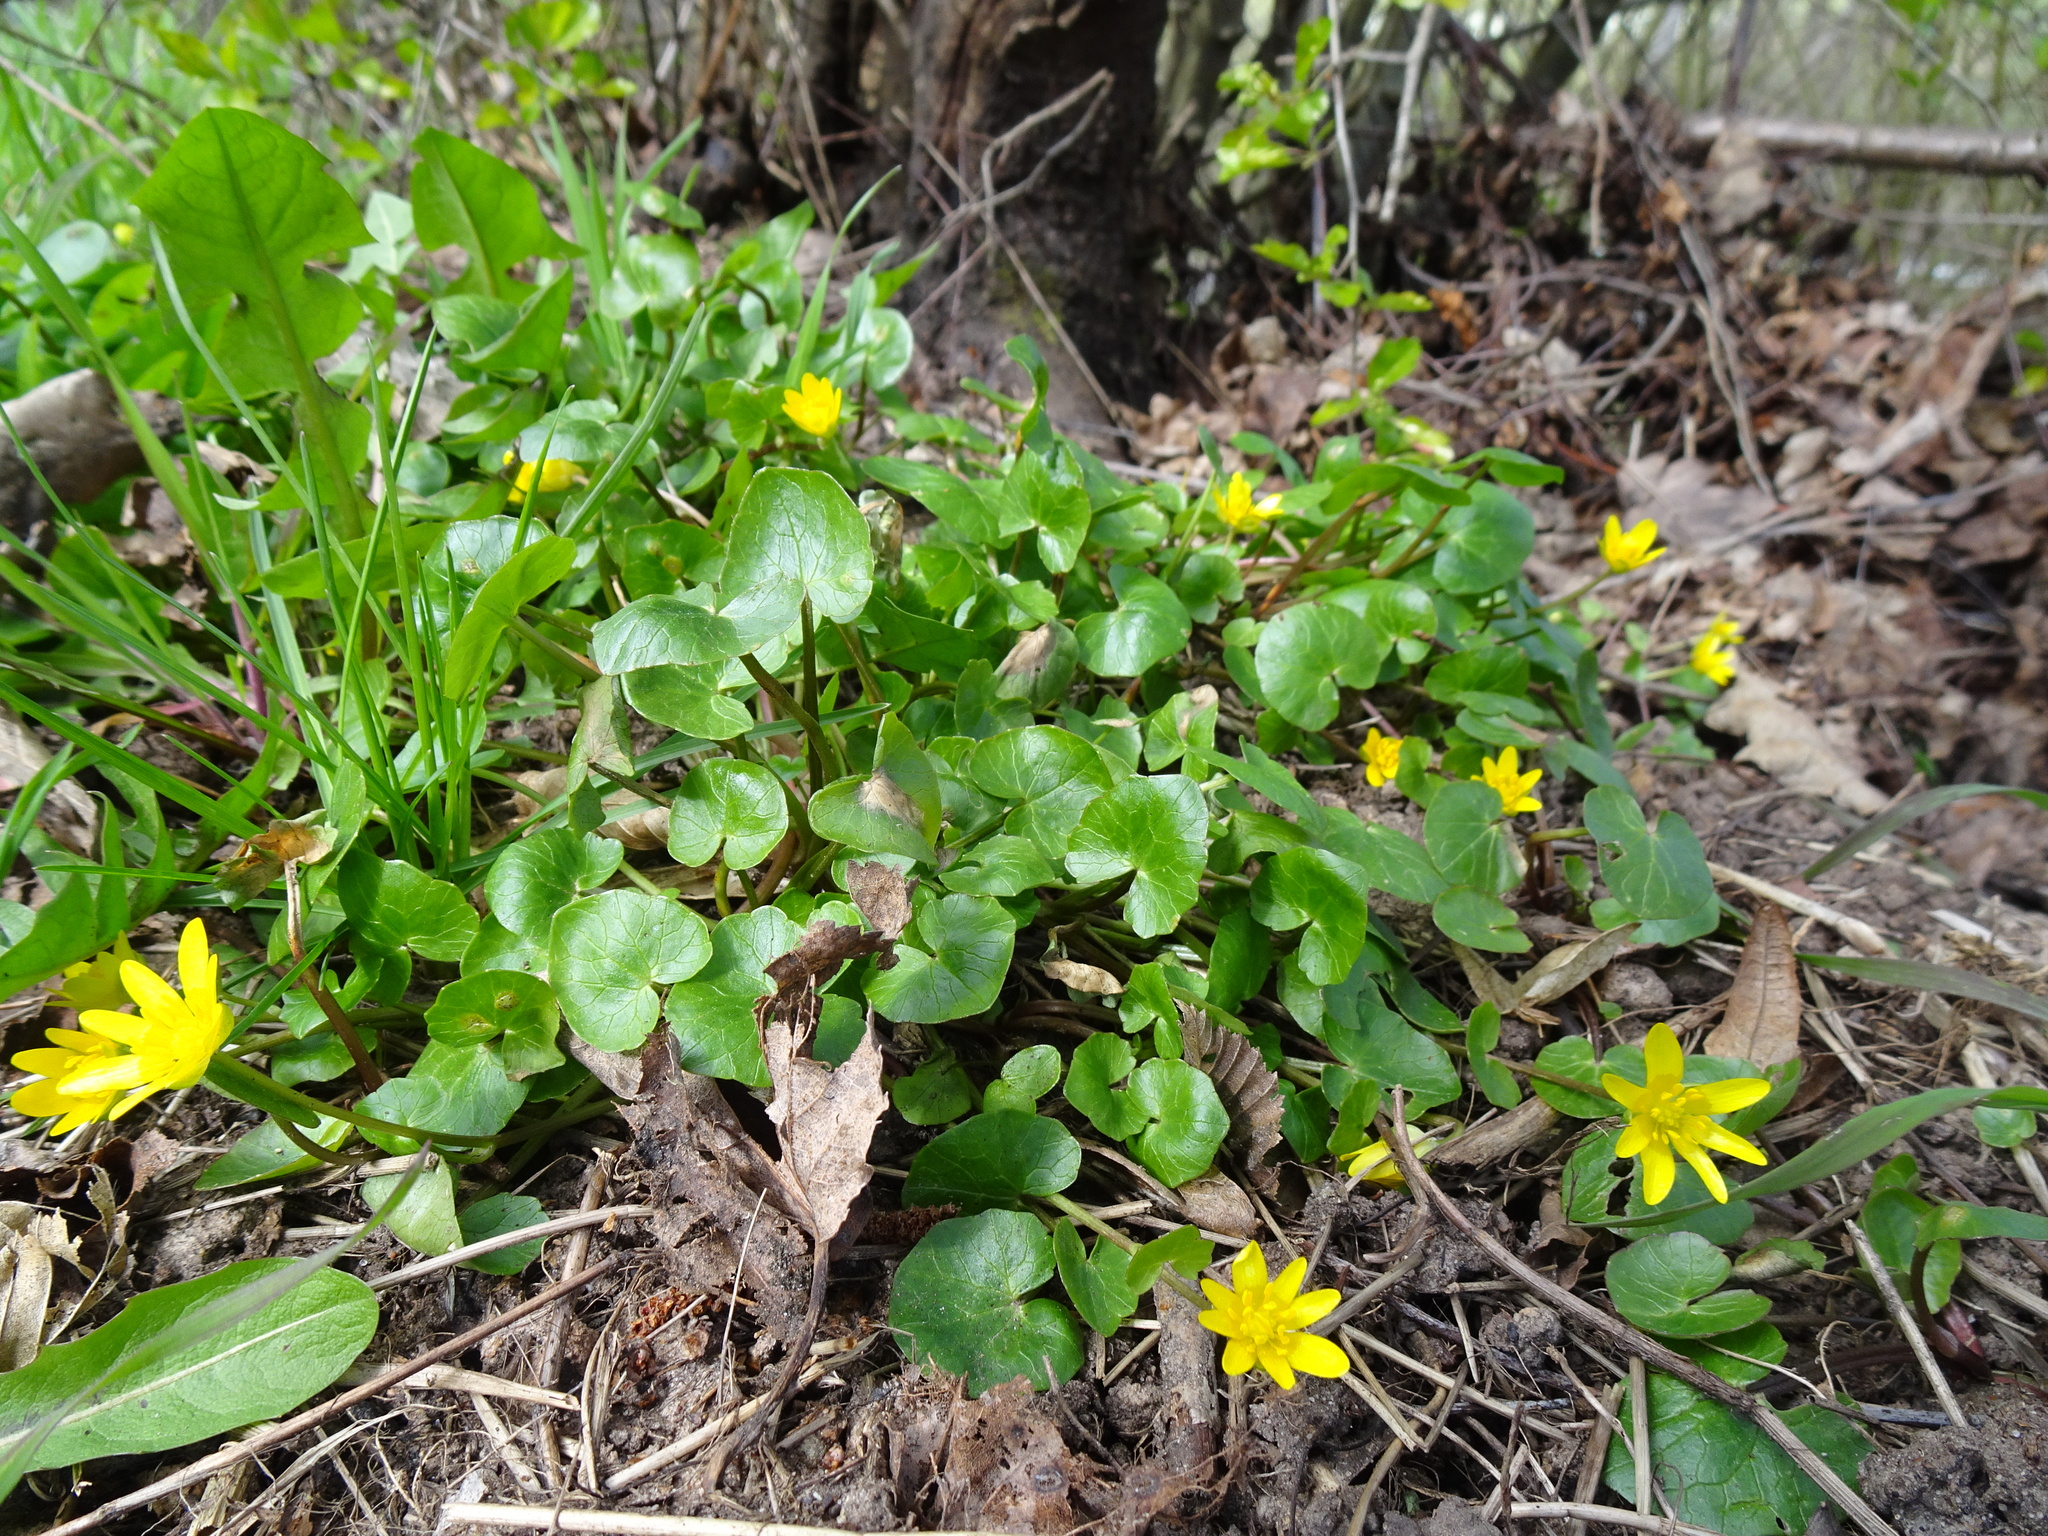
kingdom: Plantae
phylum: Tracheophyta
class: Magnoliopsida
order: Ranunculales
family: Ranunculaceae
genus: Ficaria
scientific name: Ficaria verna
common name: Lesser celandine
